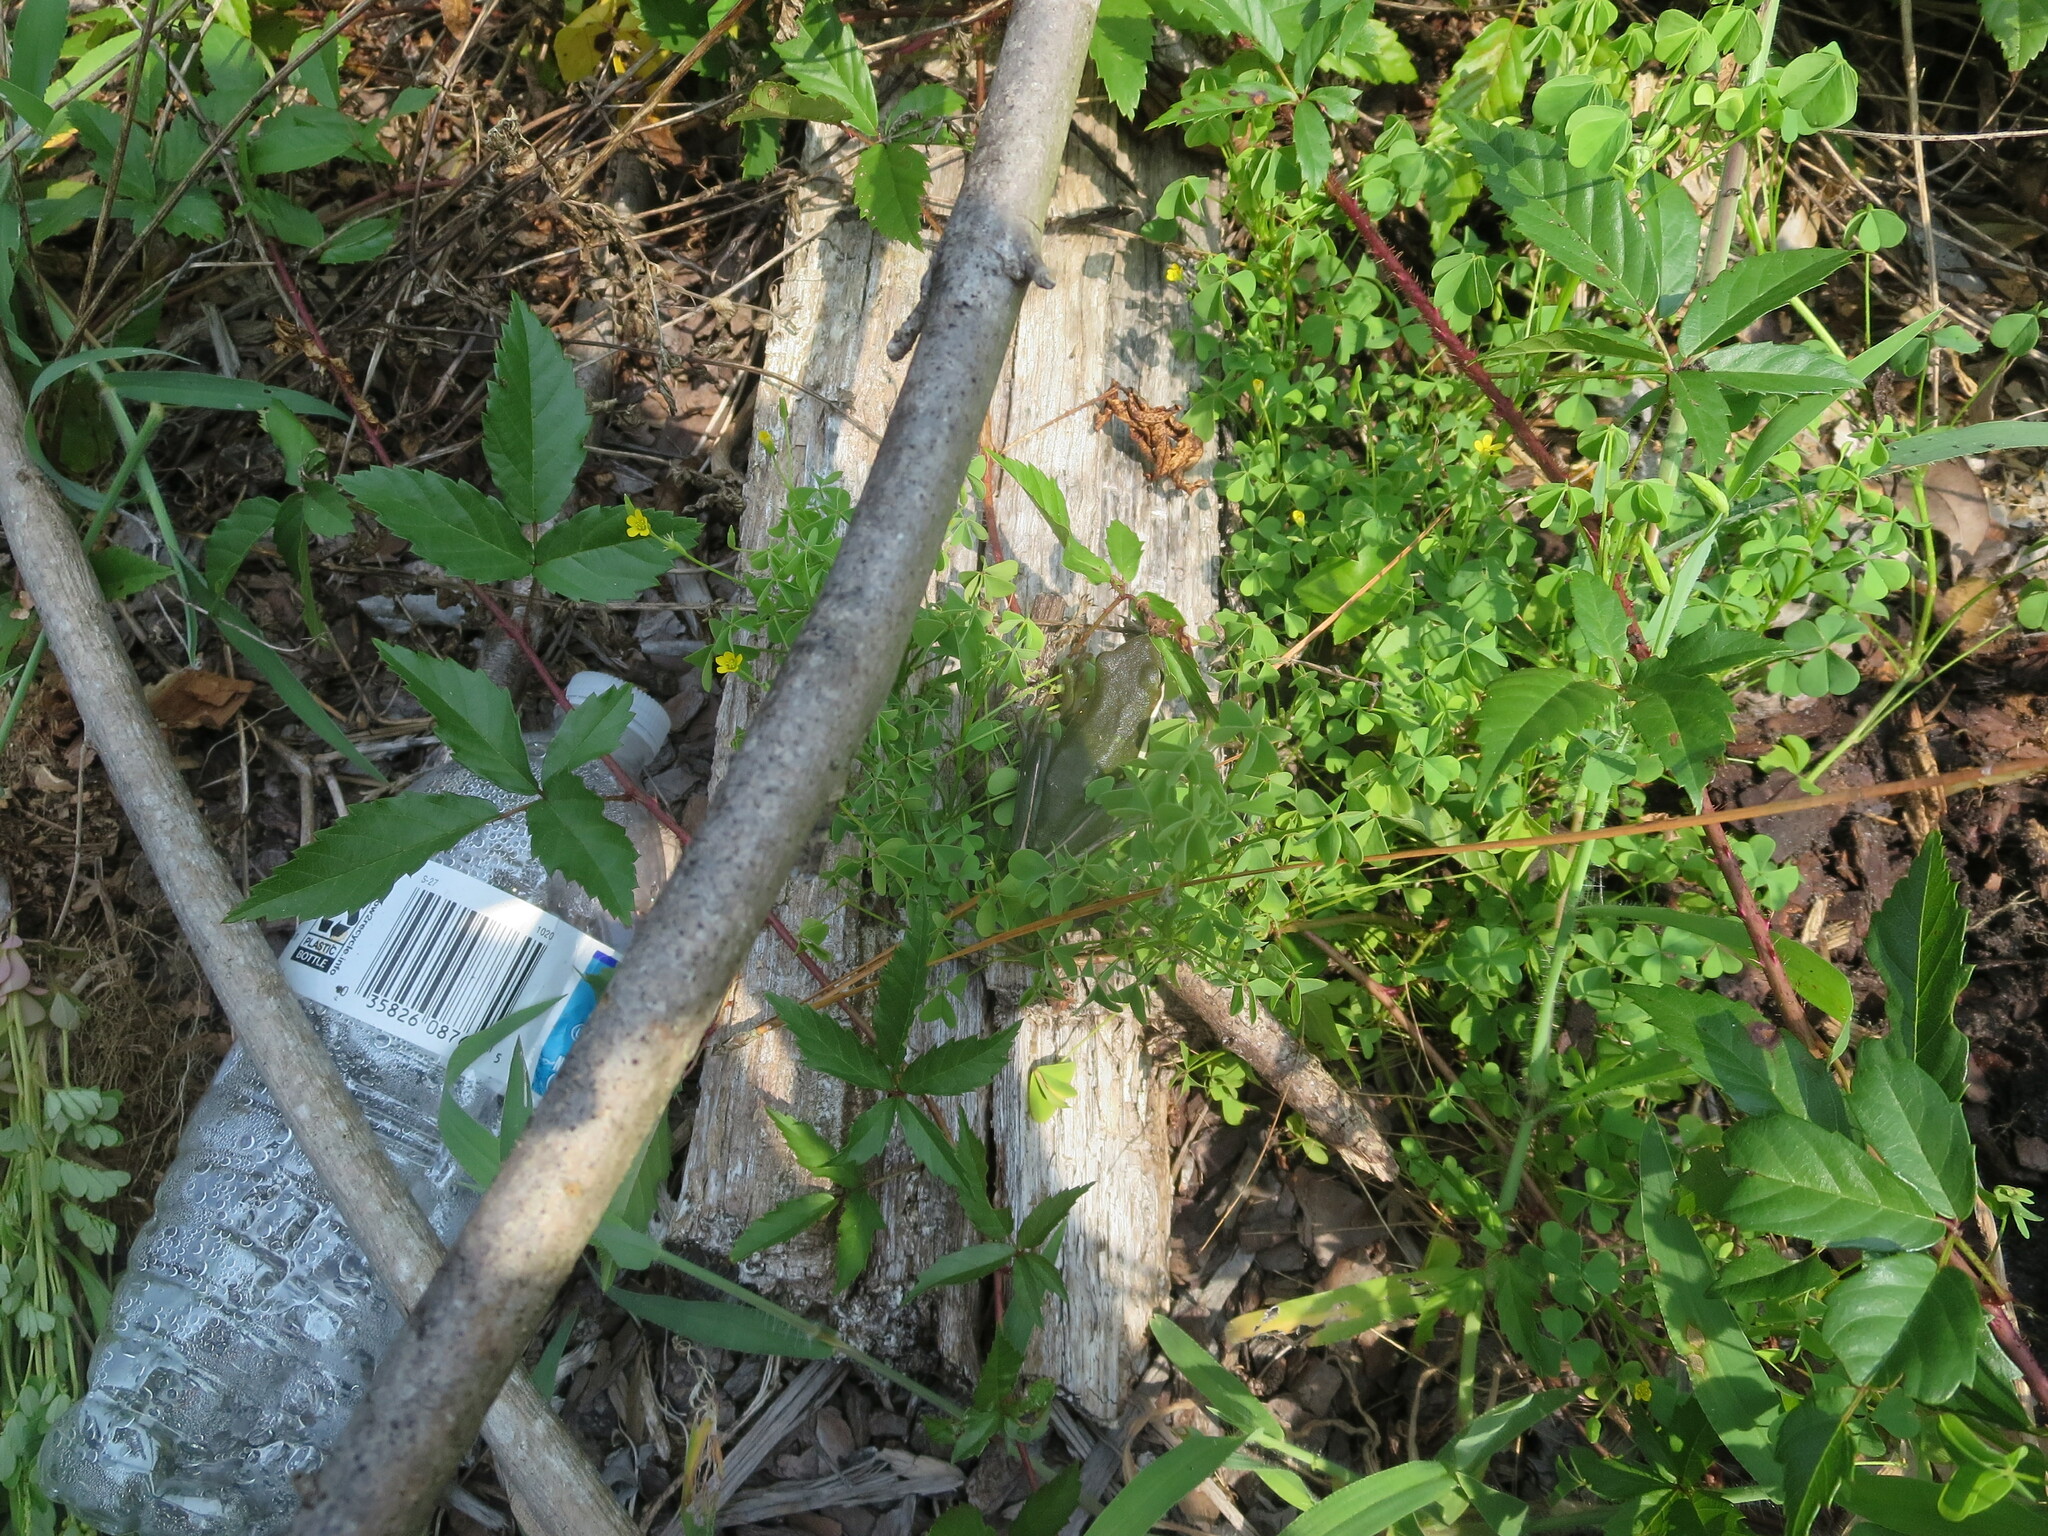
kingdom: Animalia
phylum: Chordata
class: Amphibia
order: Anura
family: Hylidae
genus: Dryophytes
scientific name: Dryophytes cinereus
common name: Green treefrog
